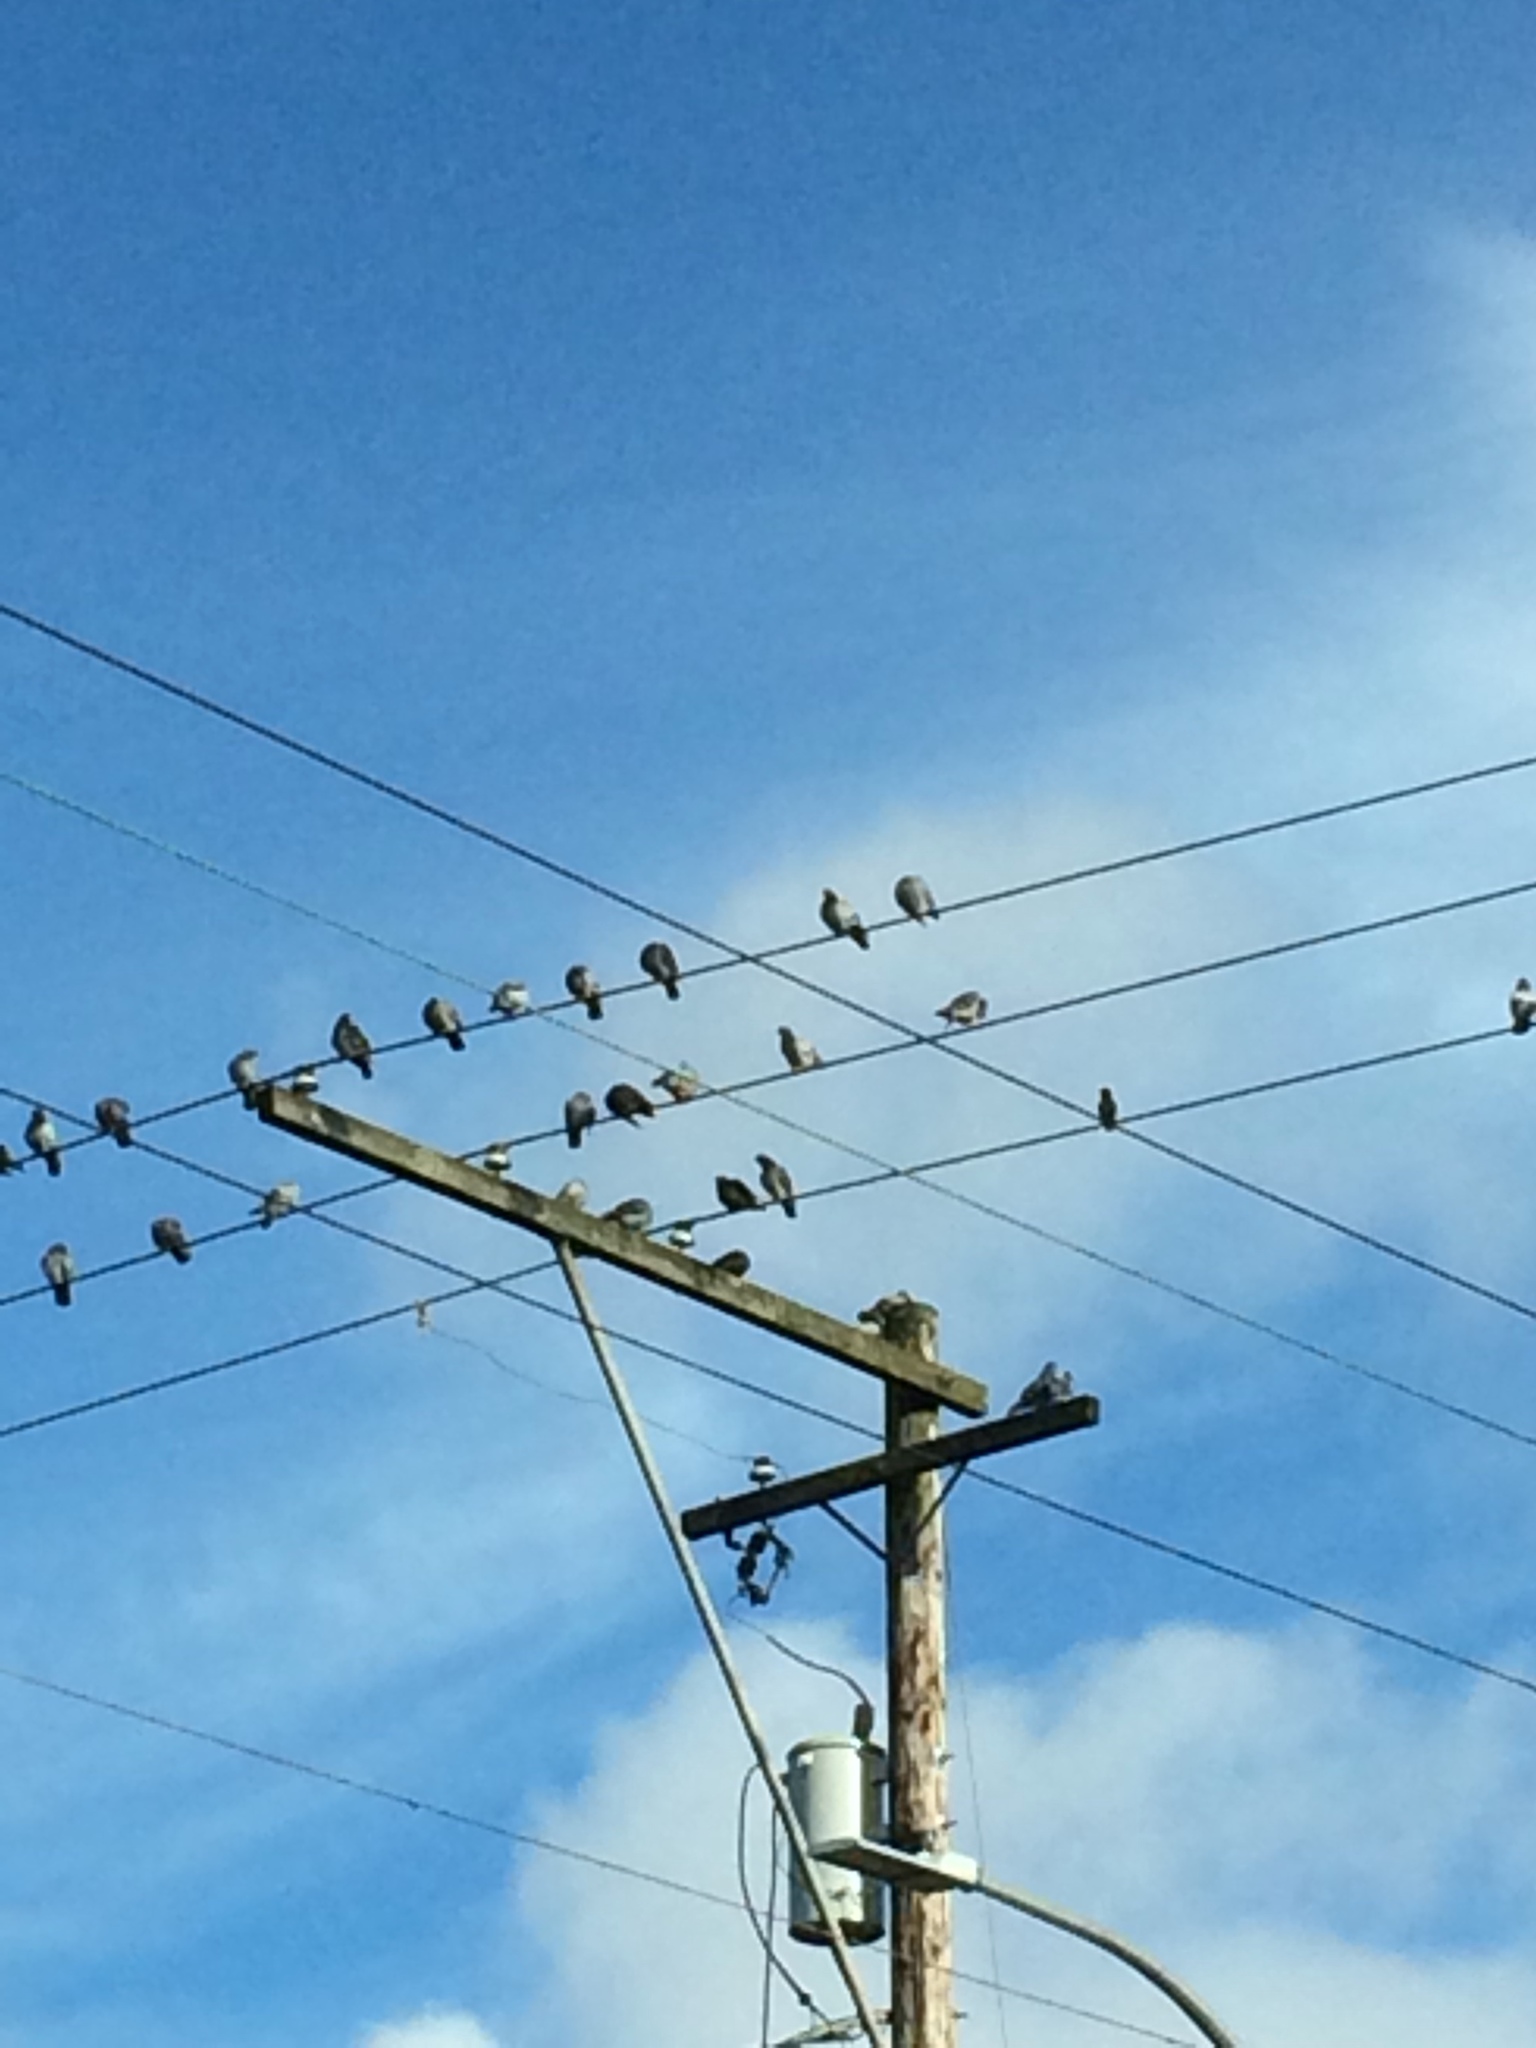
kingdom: Animalia
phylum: Chordata
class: Aves
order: Columbiformes
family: Columbidae
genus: Columba
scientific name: Columba livia
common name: Rock pigeon
